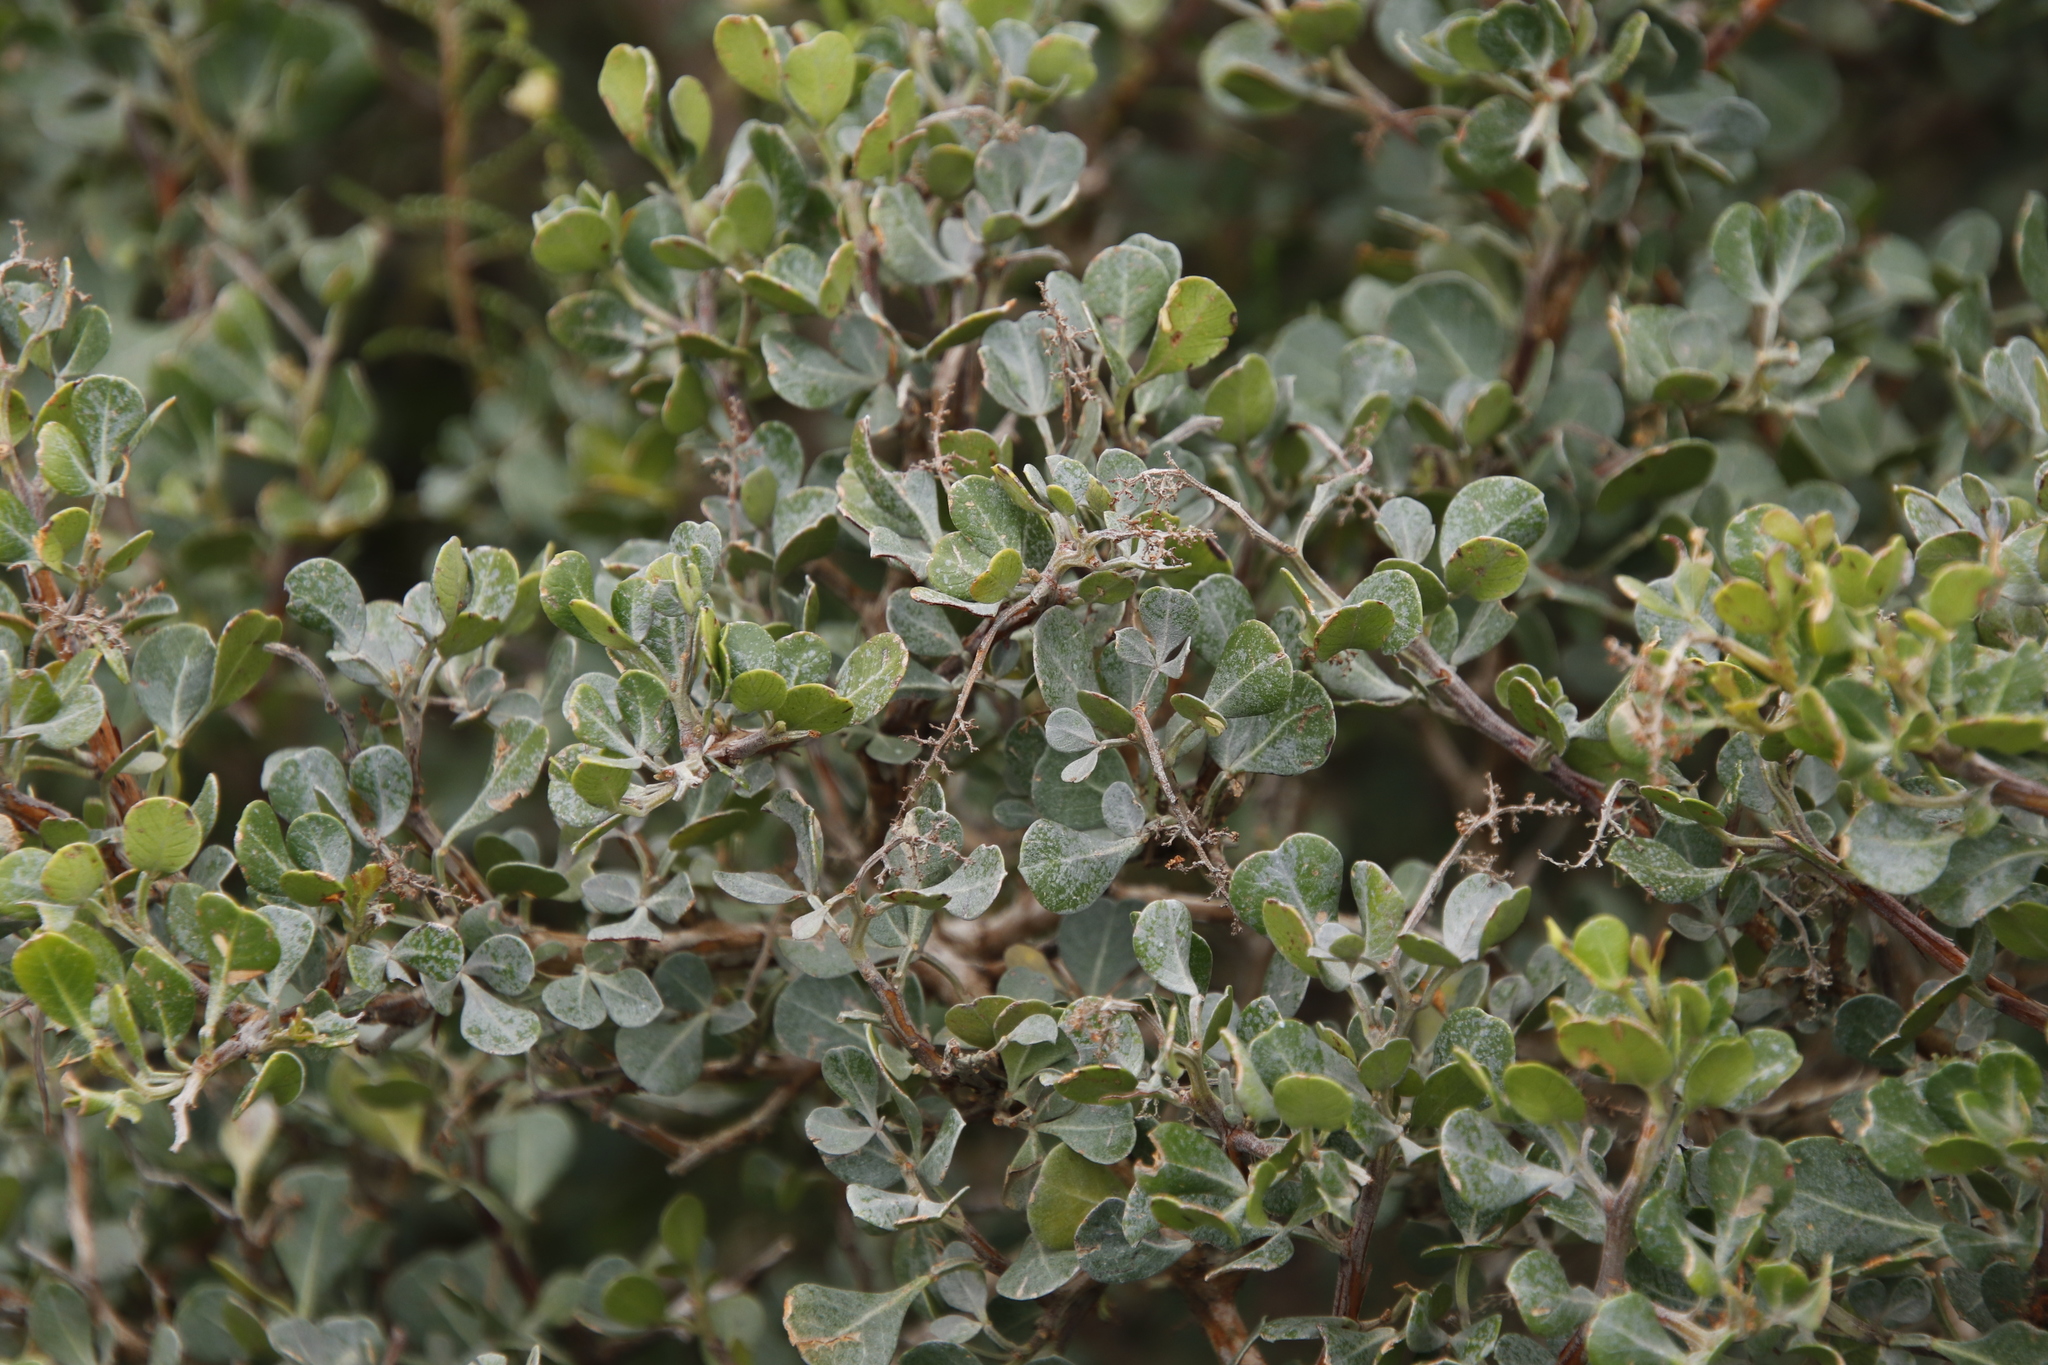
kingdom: Plantae
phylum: Tracheophyta
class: Magnoliopsida
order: Sapindales
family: Anacardiaceae
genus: Searsia
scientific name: Searsia glauca
